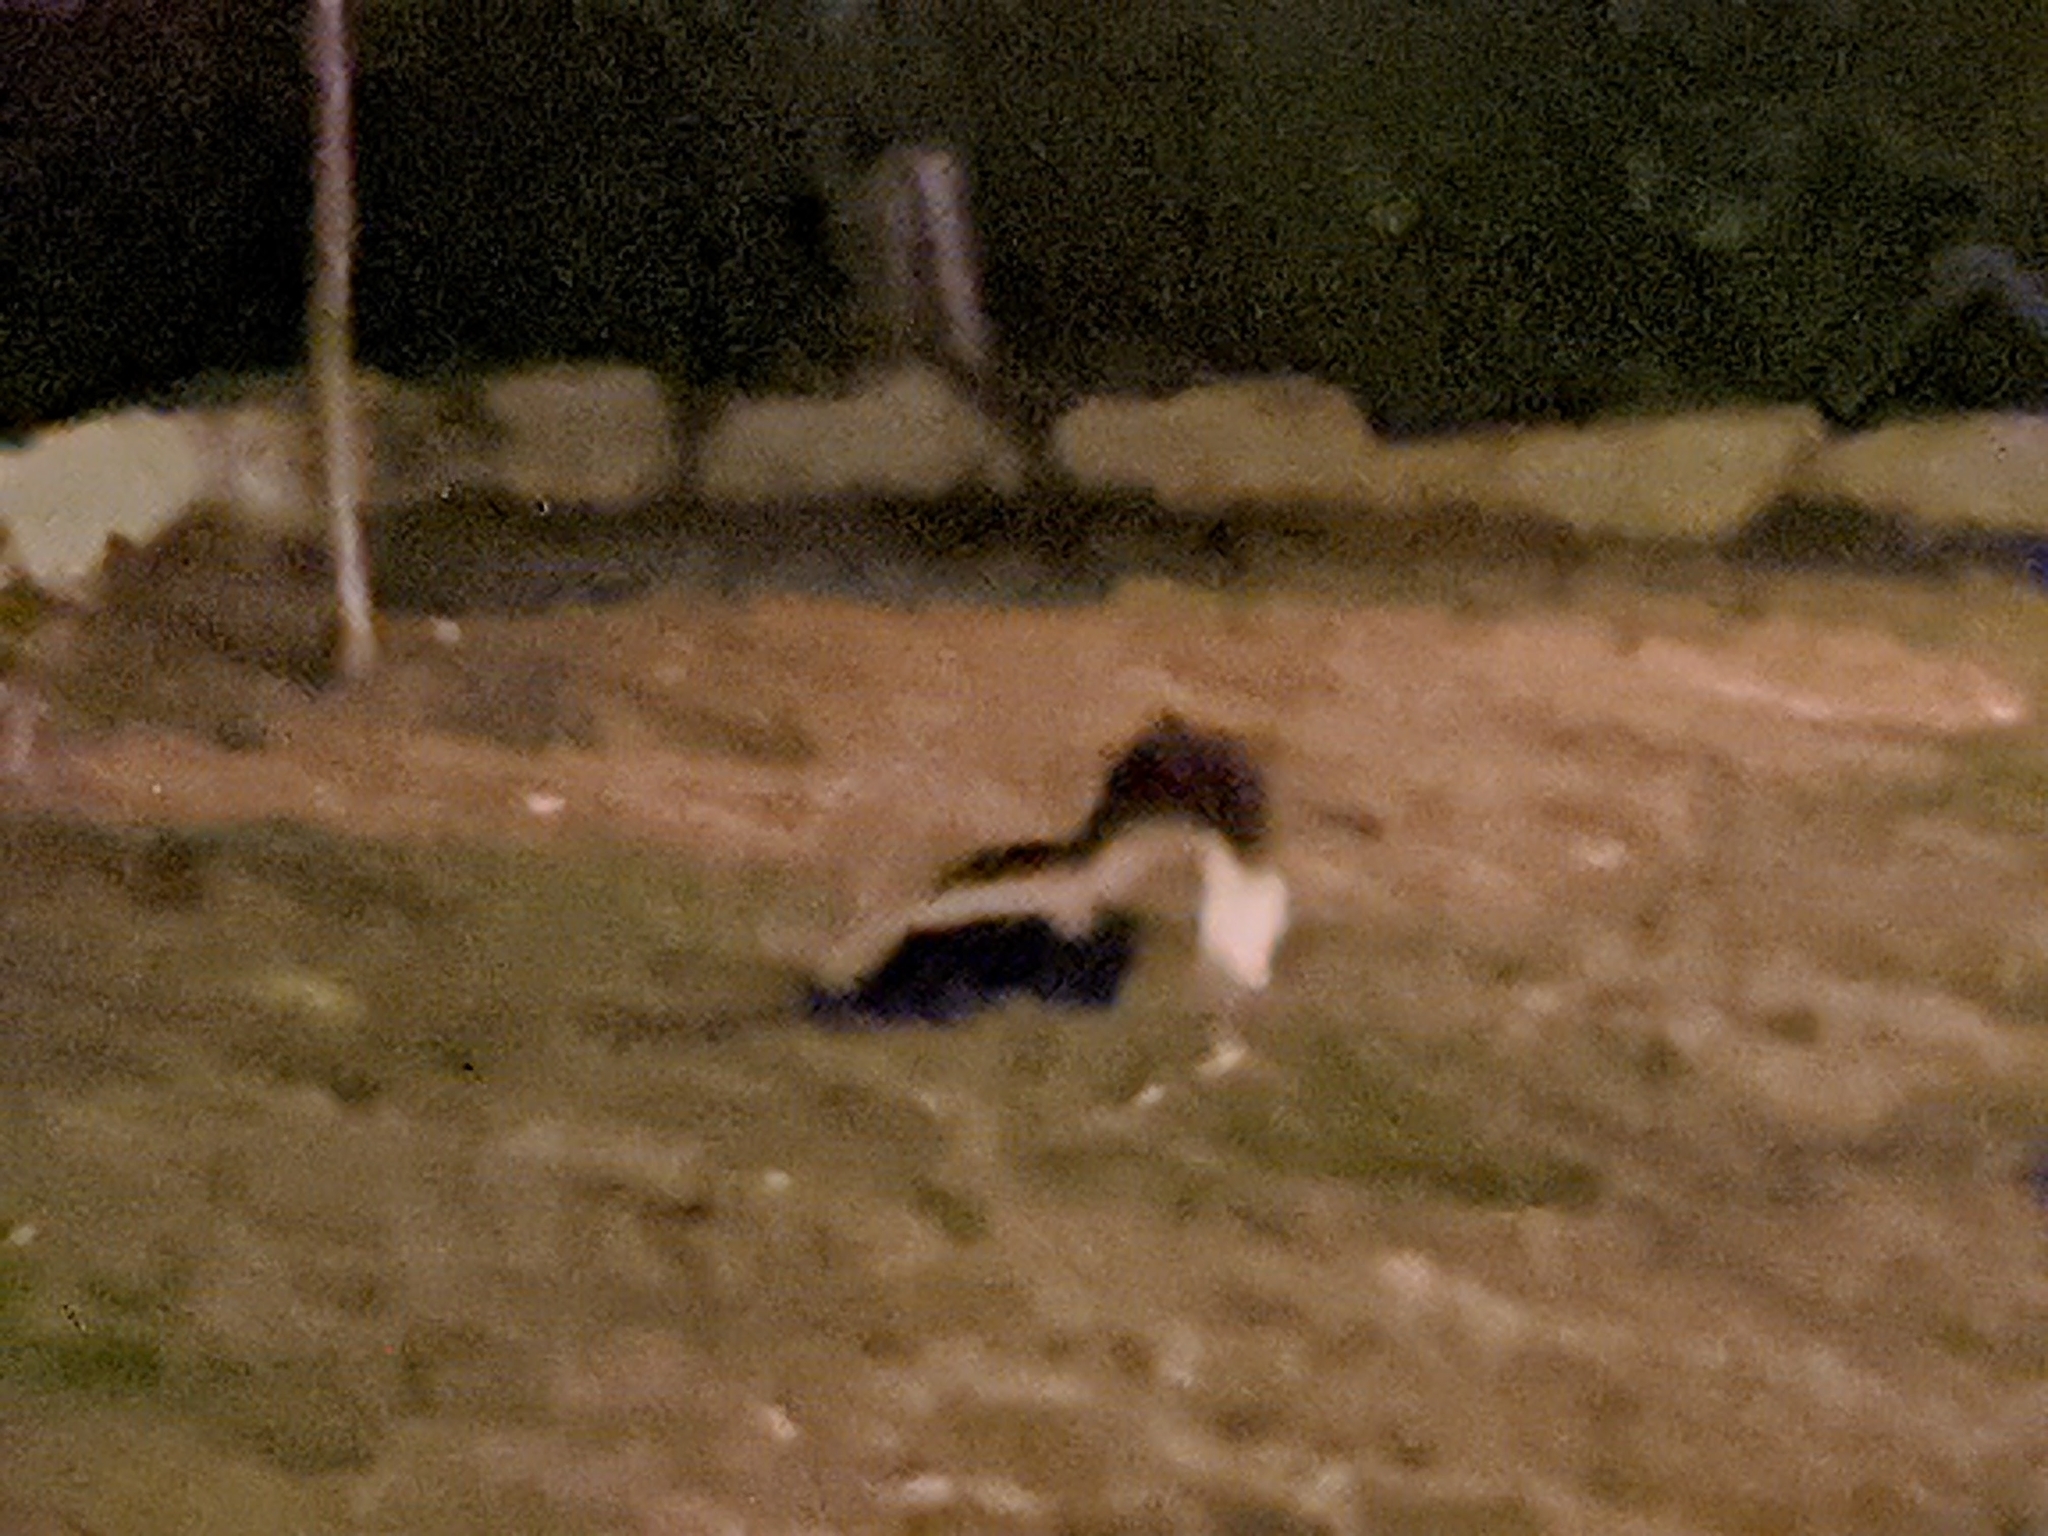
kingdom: Animalia
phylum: Chordata
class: Mammalia
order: Carnivora
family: Mephitidae
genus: Mephitis
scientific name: Mephitis mephitis
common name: Striped skunk
